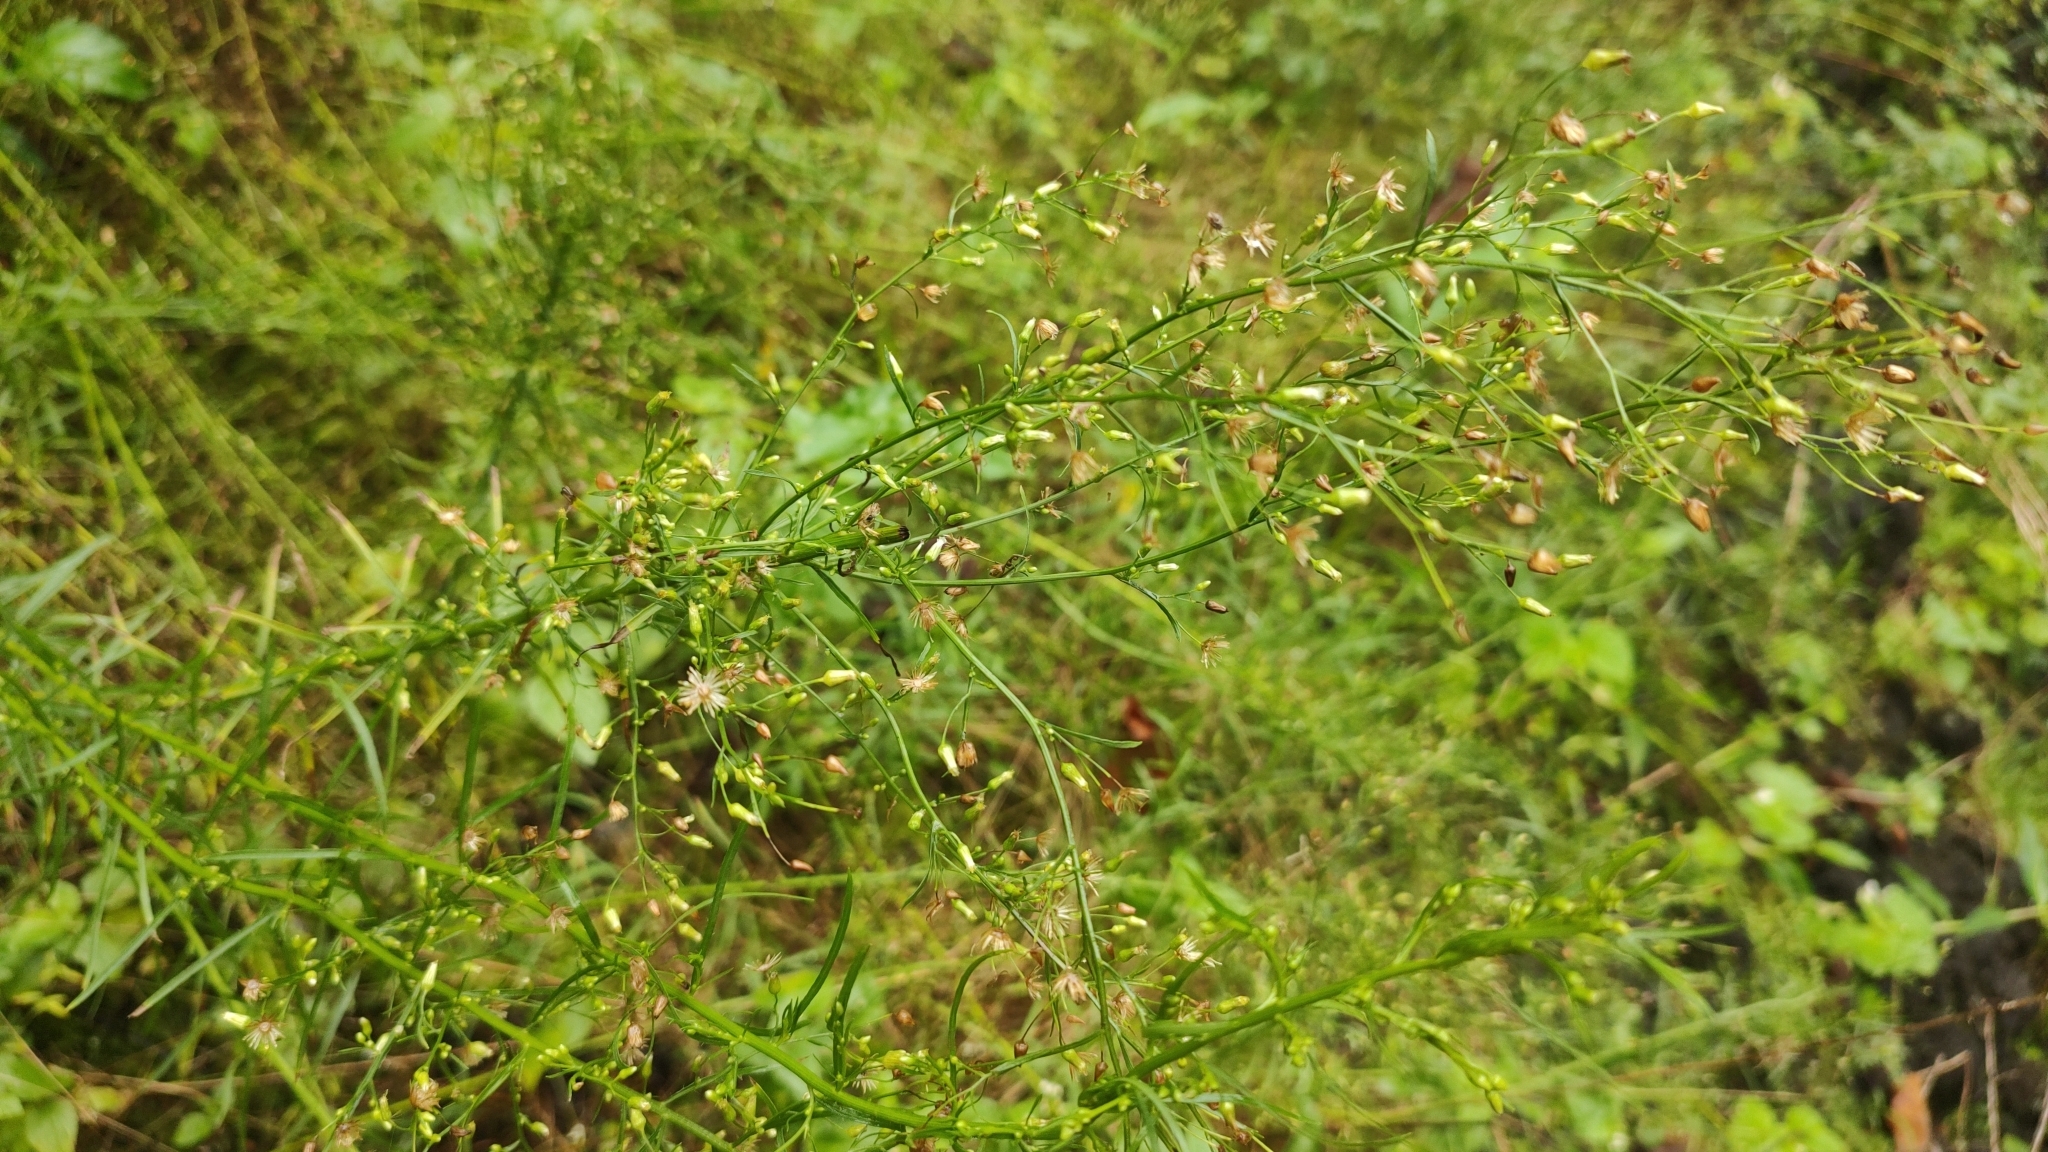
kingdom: Plantae
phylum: Tracheophyta
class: Magnoliopsida
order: Asterales
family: Asteraceae
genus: Erigeron
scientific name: Erigeron canadensis
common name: Canadian fleabane
